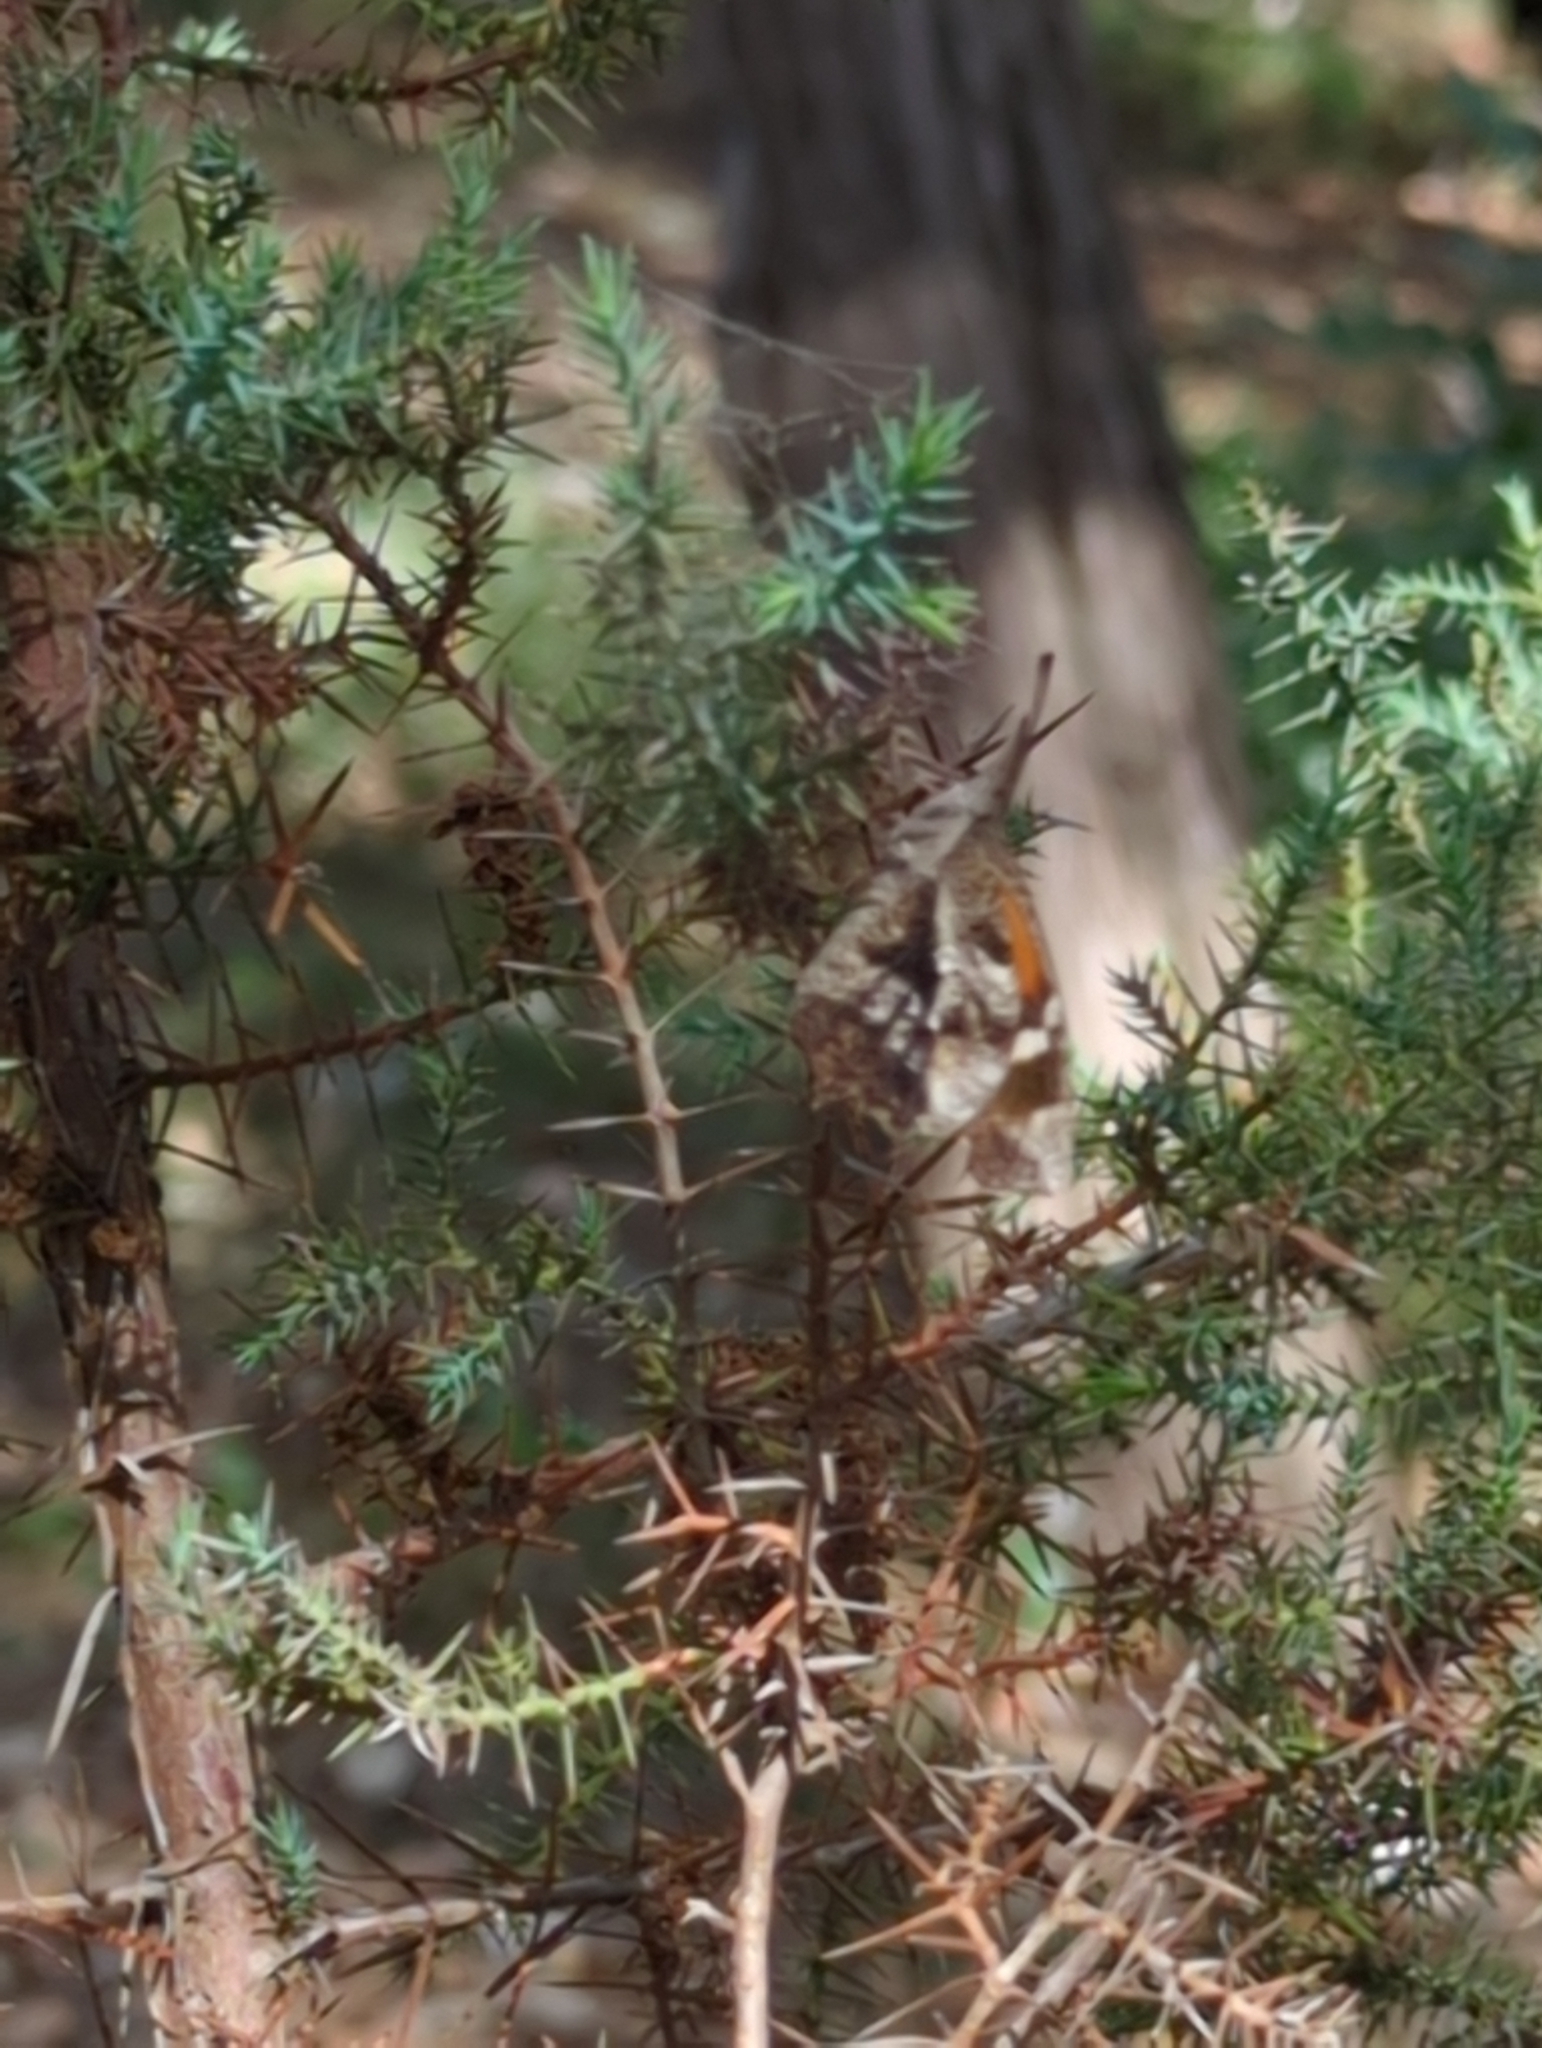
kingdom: Animalia
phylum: Arthropoda
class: Insecta
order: Lepidoptera
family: Nymphalidae
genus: Libytheana
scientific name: Libytheana carinenta
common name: American snout
